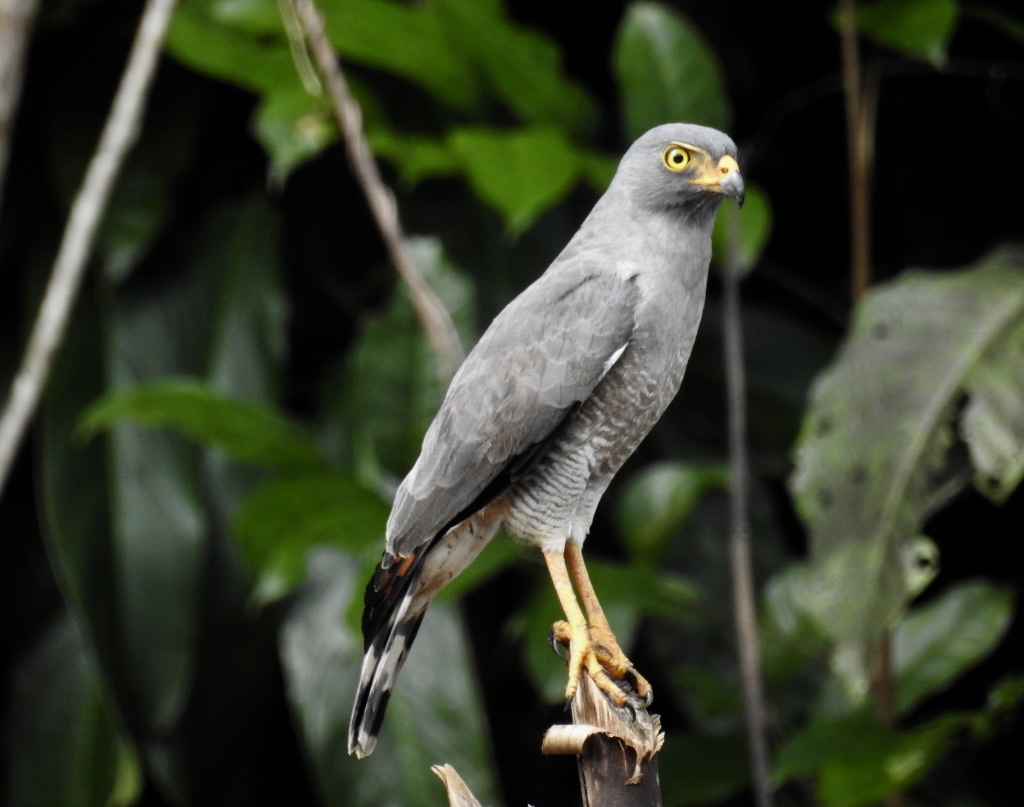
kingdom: Animalia
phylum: Chordata
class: Aves
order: Accipitriformes
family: Accipitridae
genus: Rupornis
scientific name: Rupornis magnirostris
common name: Roadside hawk
